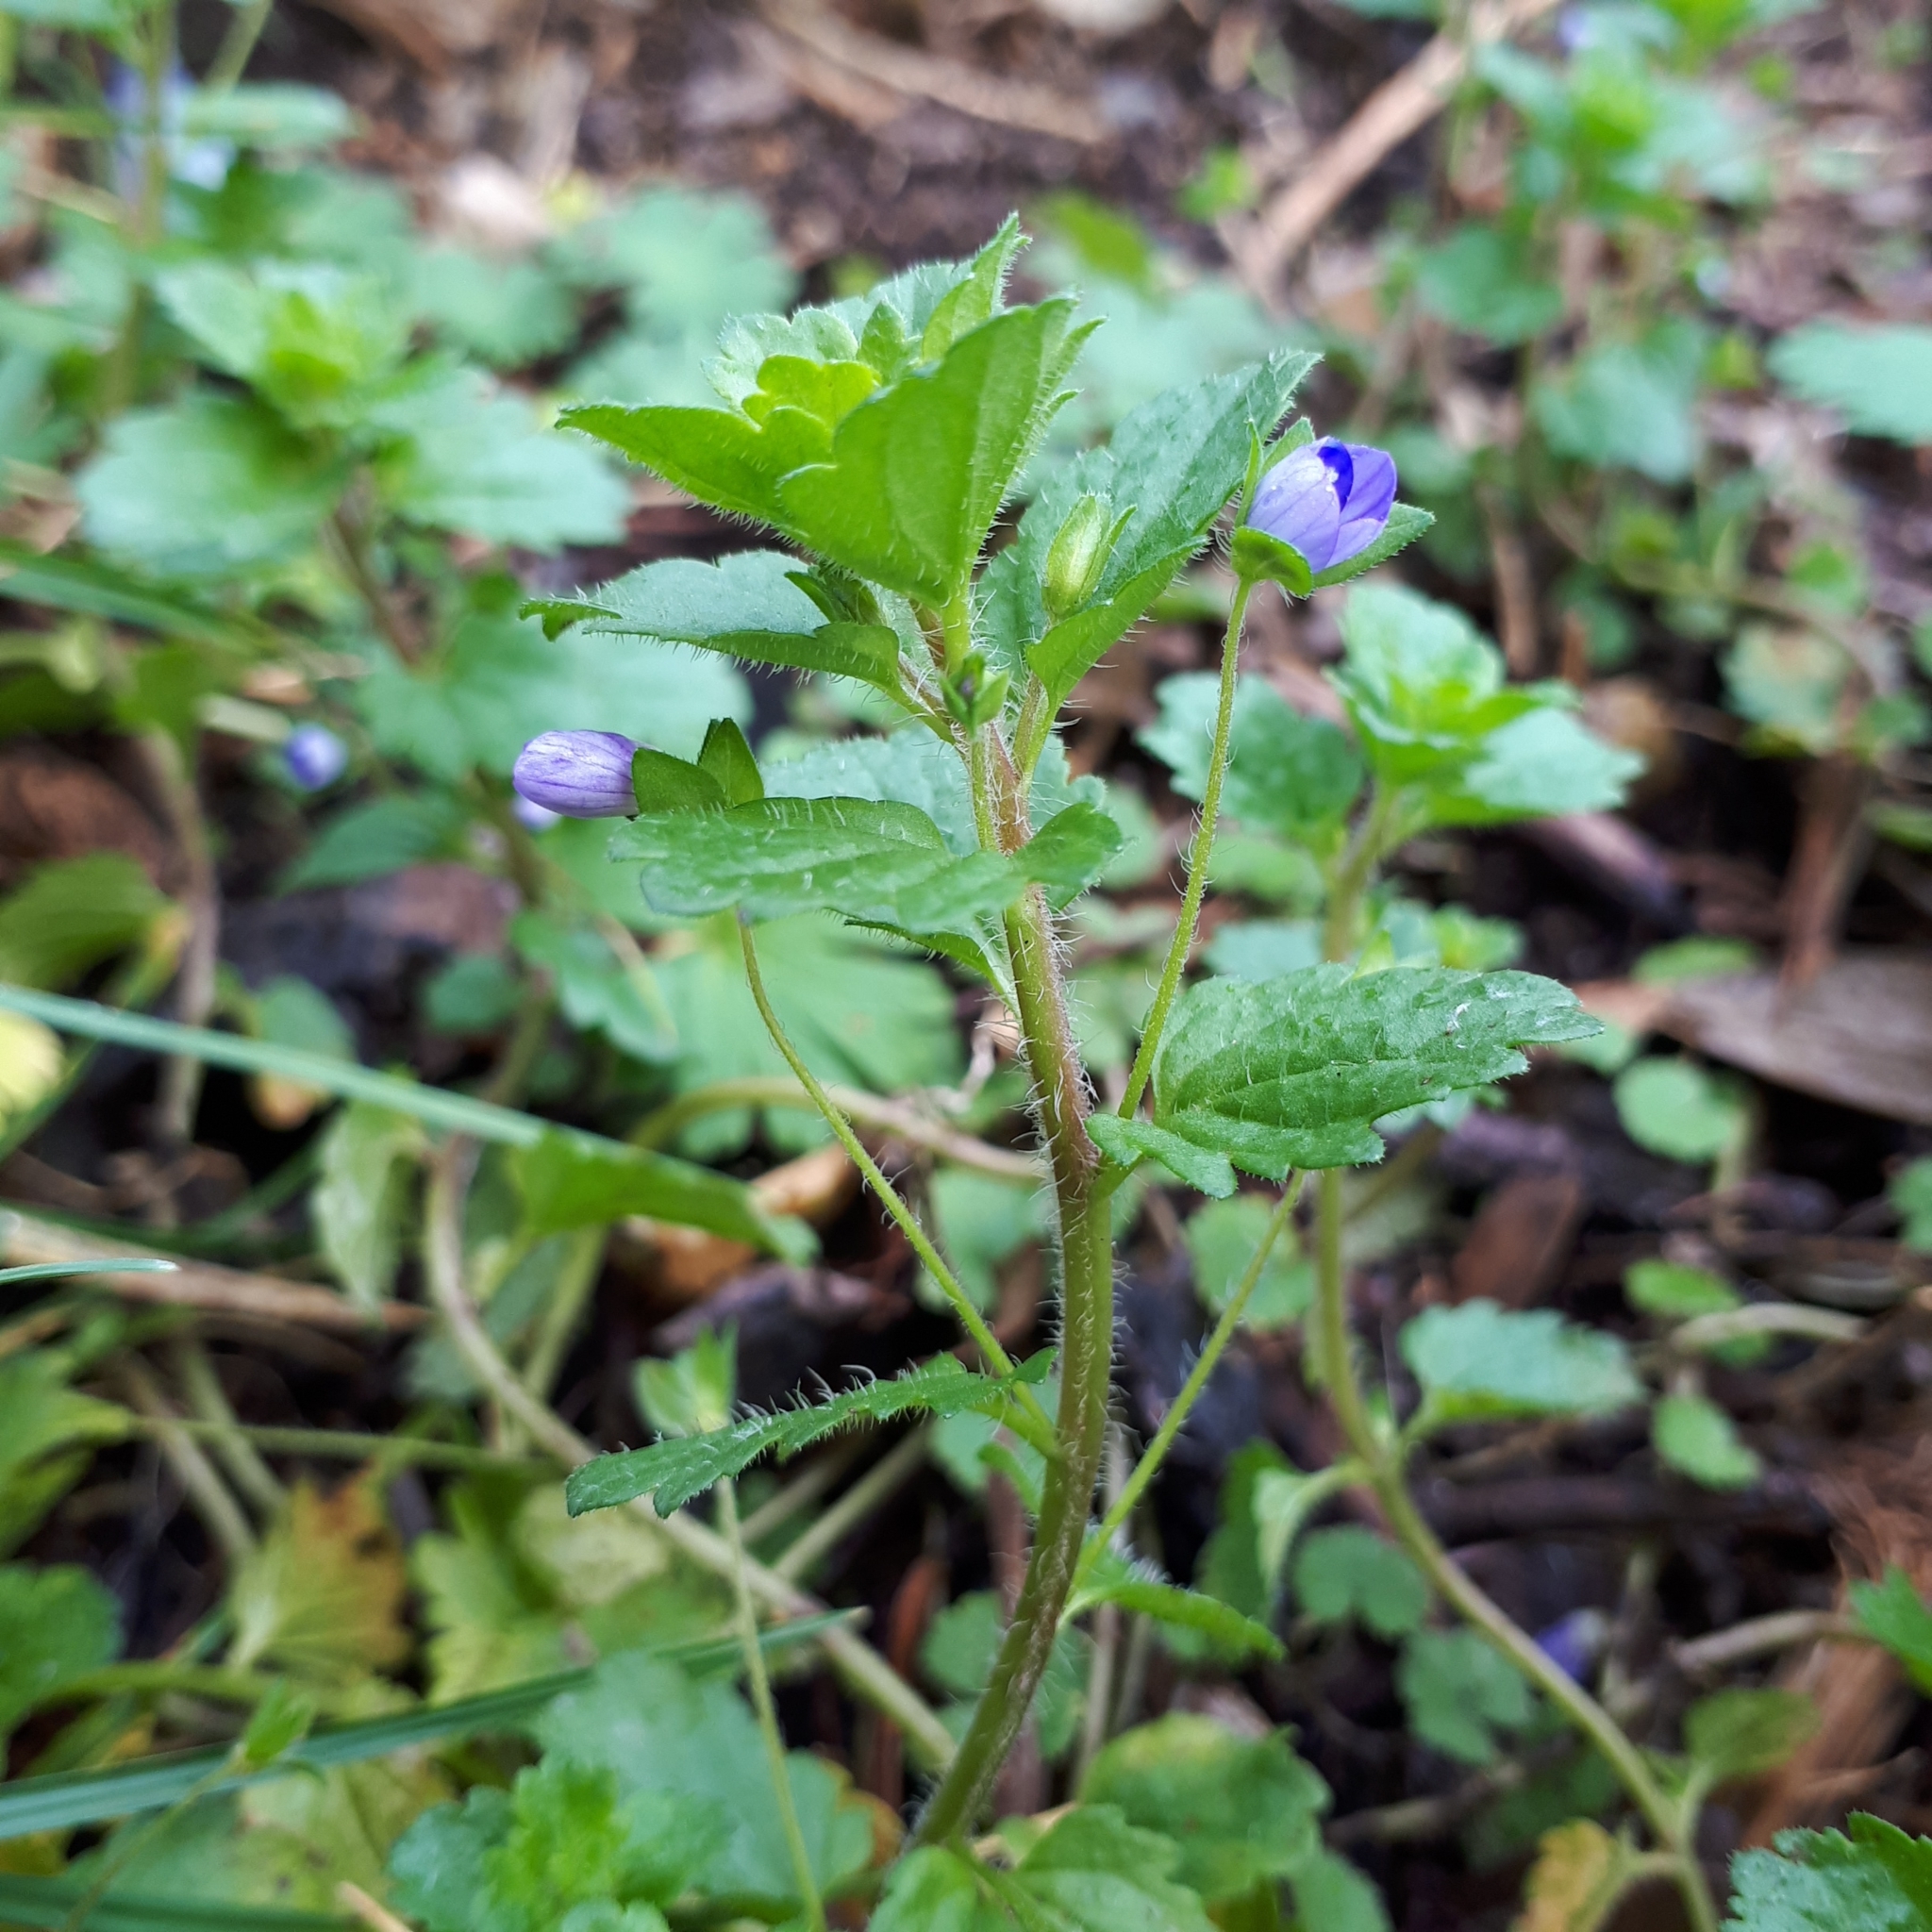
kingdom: Plantae
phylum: Tracheophyta
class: Magnoliopsida
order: Lamiales
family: Plantaginaceae
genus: Veronica
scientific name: Veronica persica
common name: Common field-speedwell
